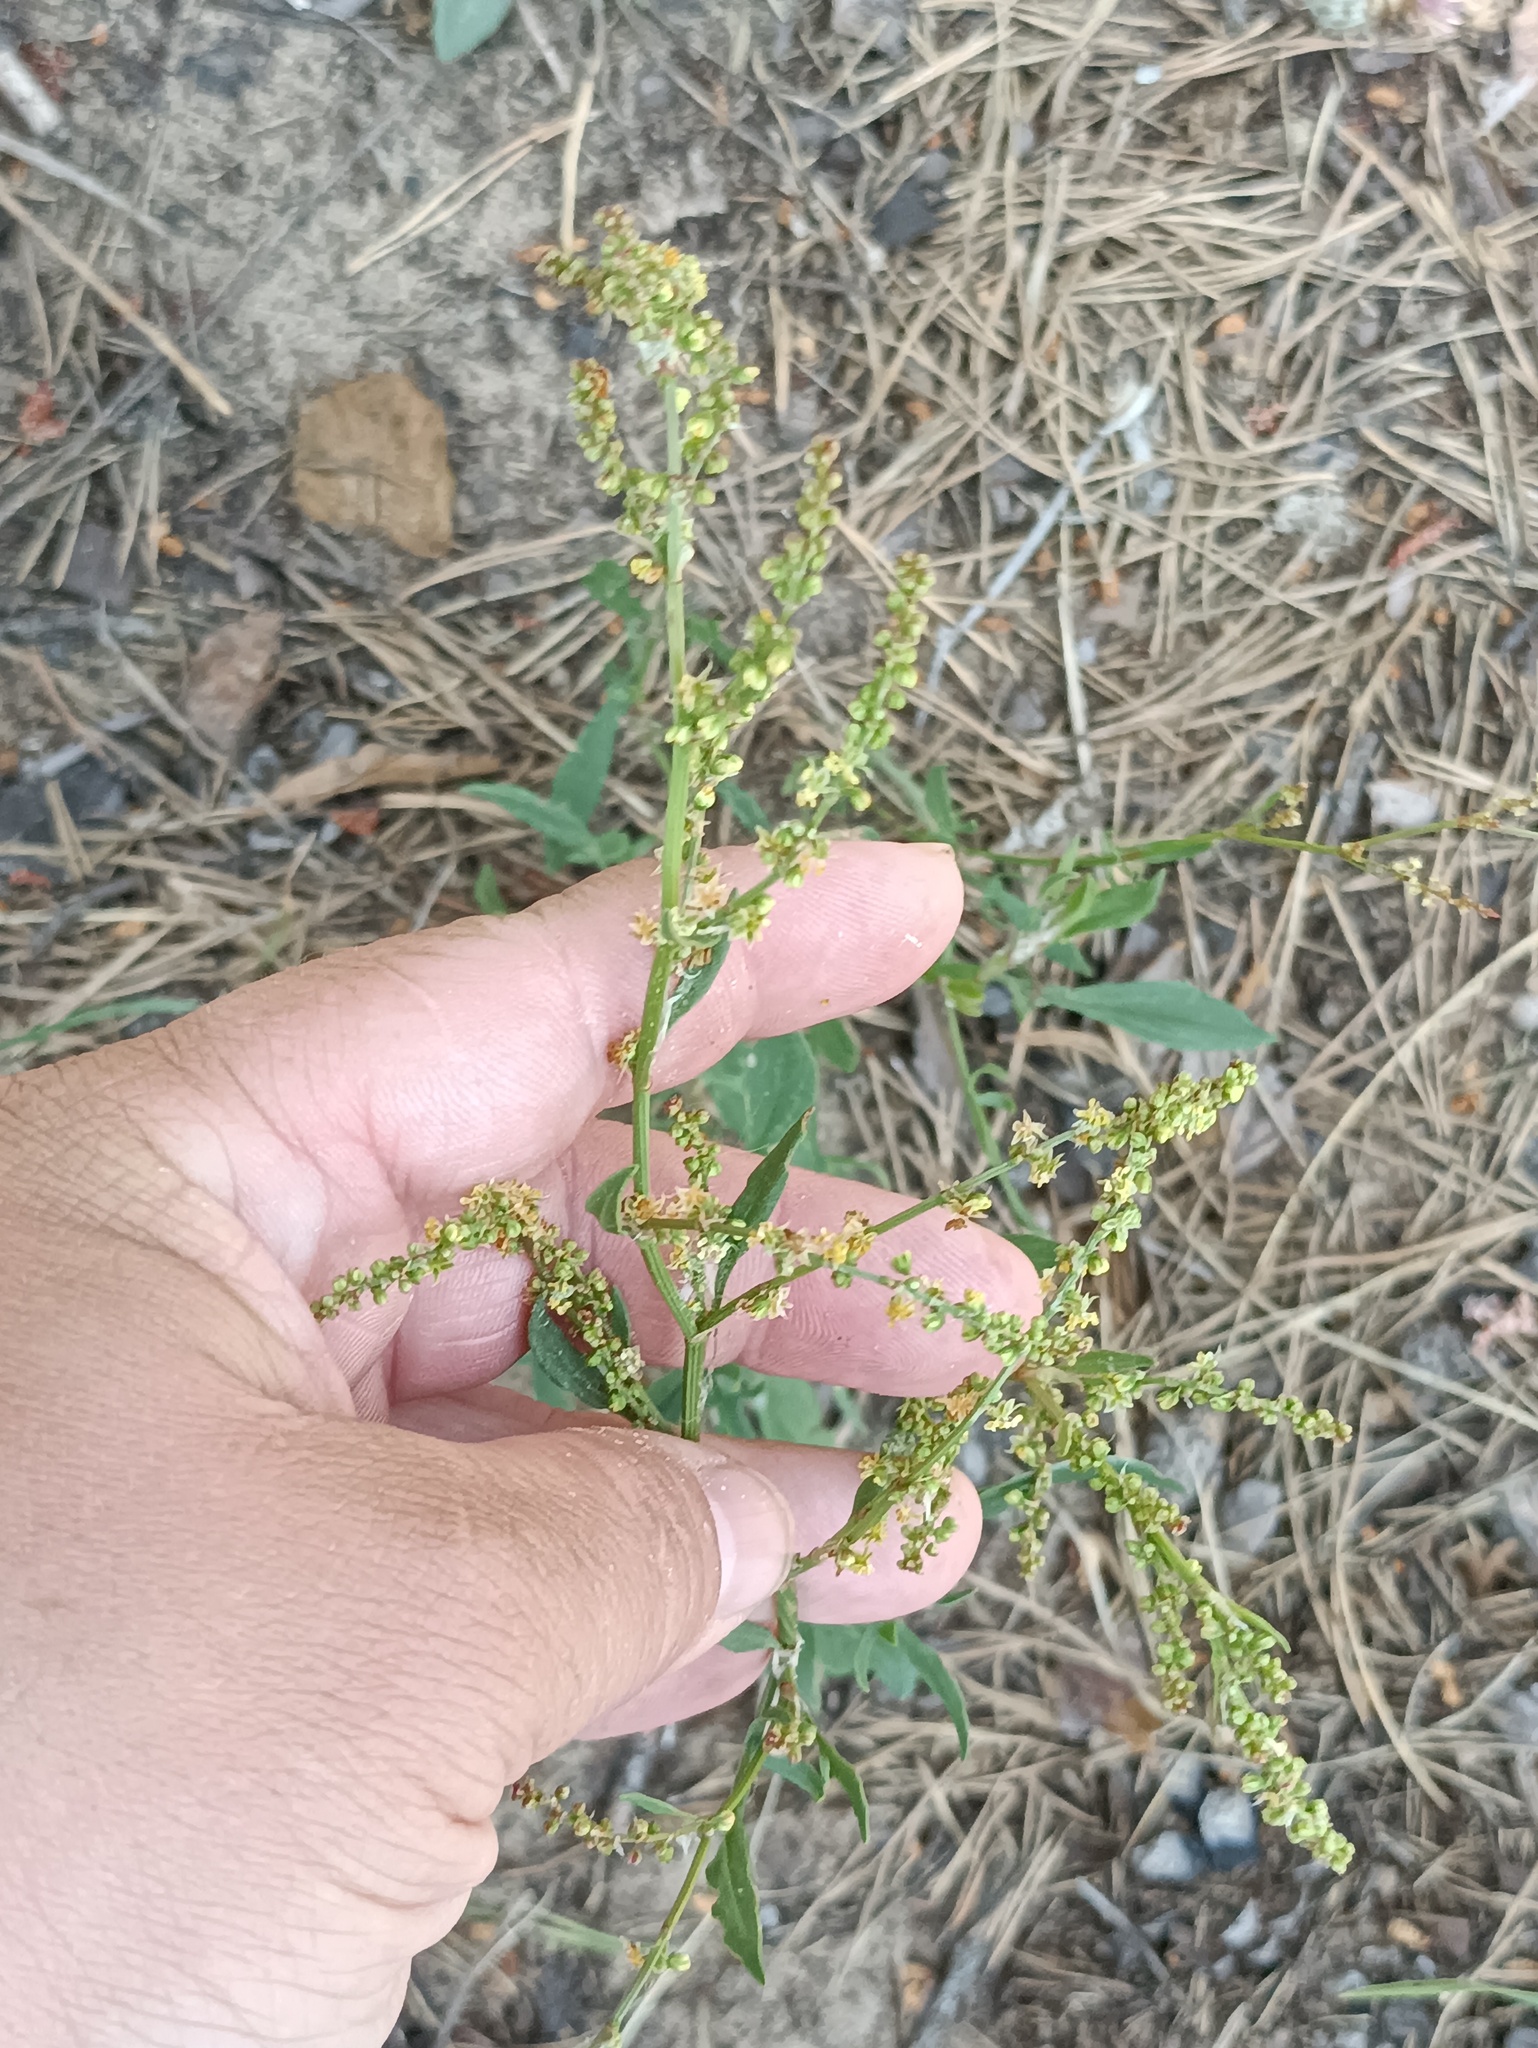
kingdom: Plantae
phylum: Tracheophyta
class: Magnoliopsida
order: Caryophyllales
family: Polygonaceae
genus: Rumex
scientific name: Rumex acetosella
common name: Common sheep sorrel
